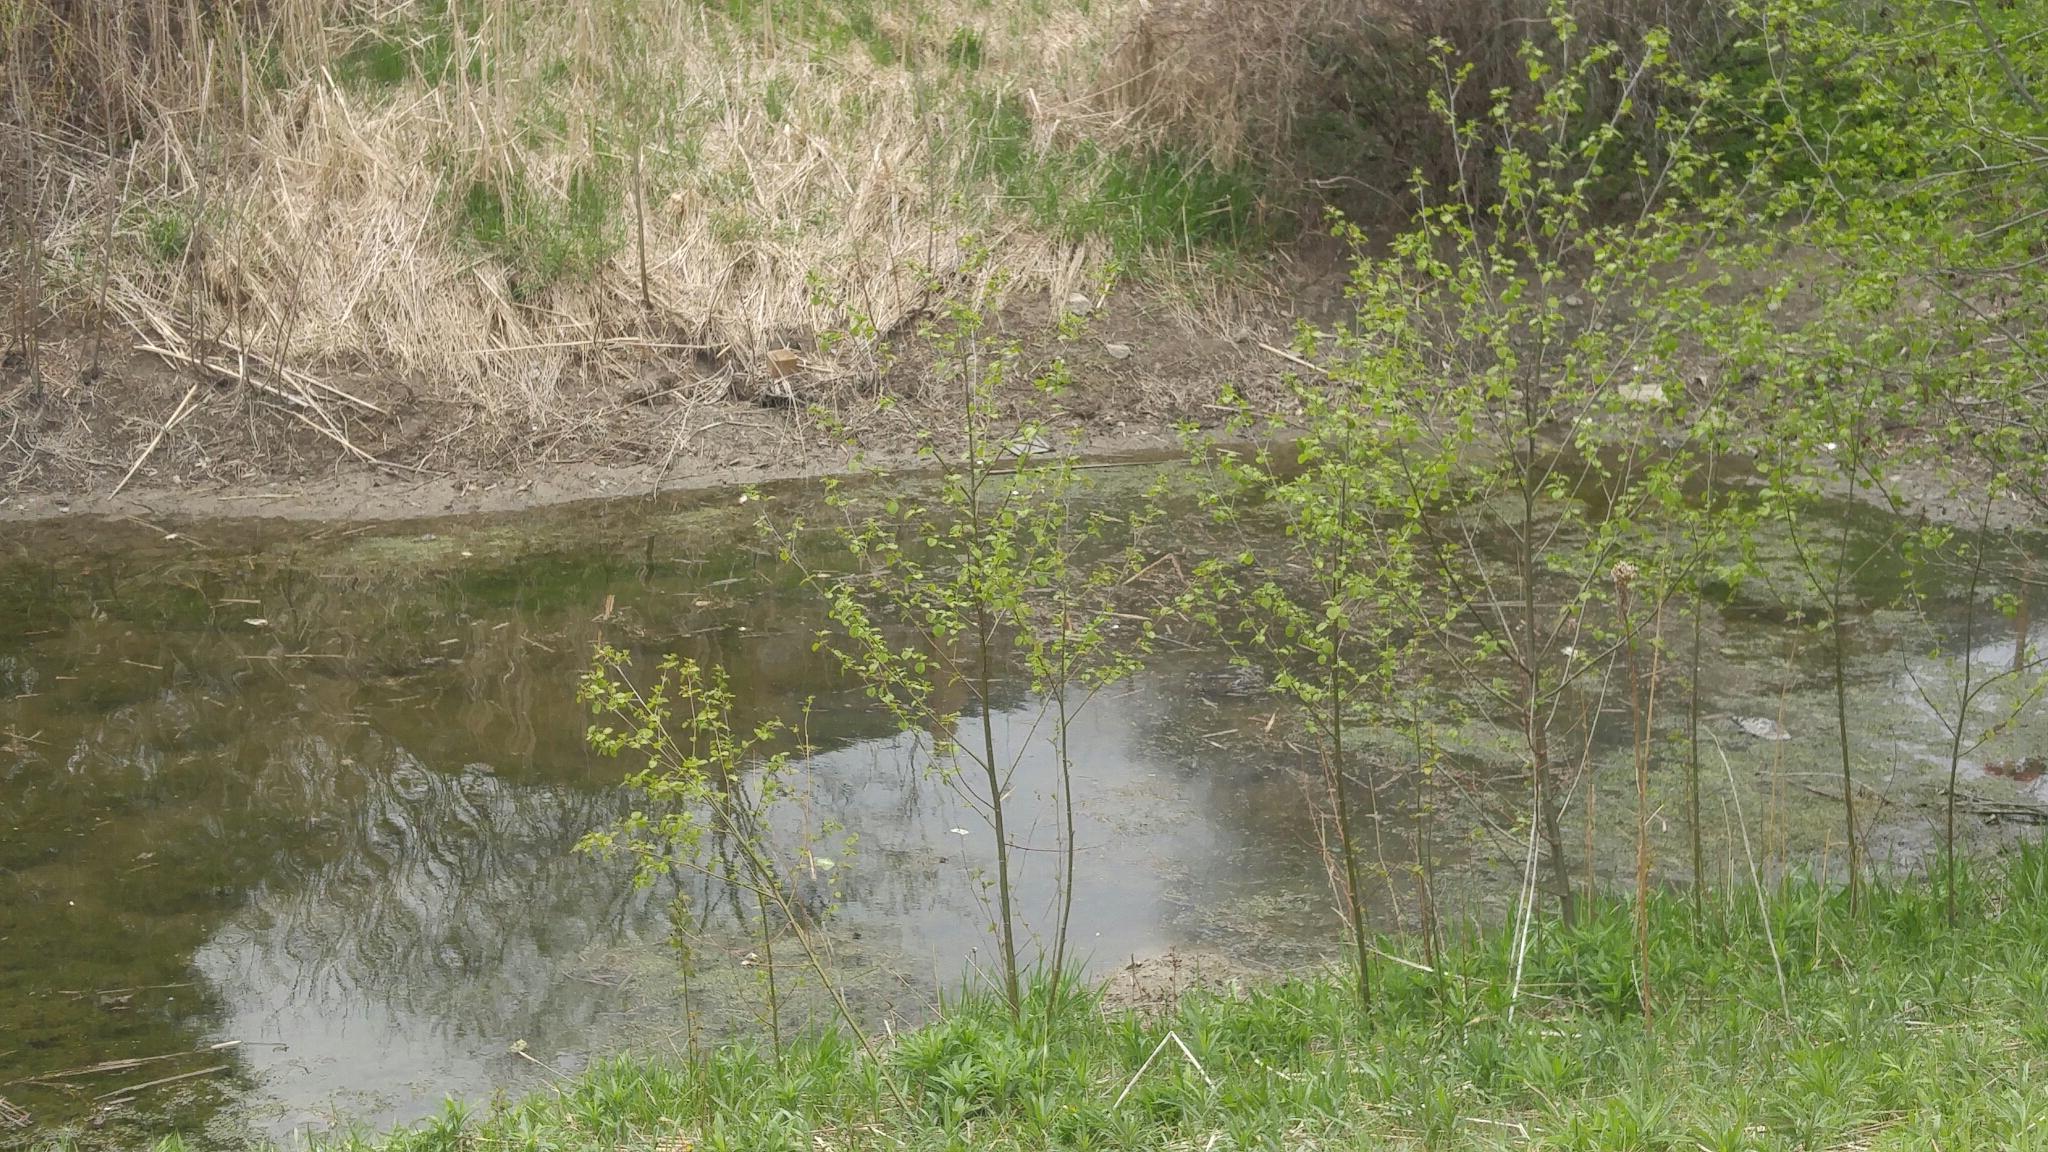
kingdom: Animalia
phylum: Chordata
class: Amphibia
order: Anura
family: Bufonidae
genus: Anaxyrus
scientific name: Anaxyrus americanus
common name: American toad
